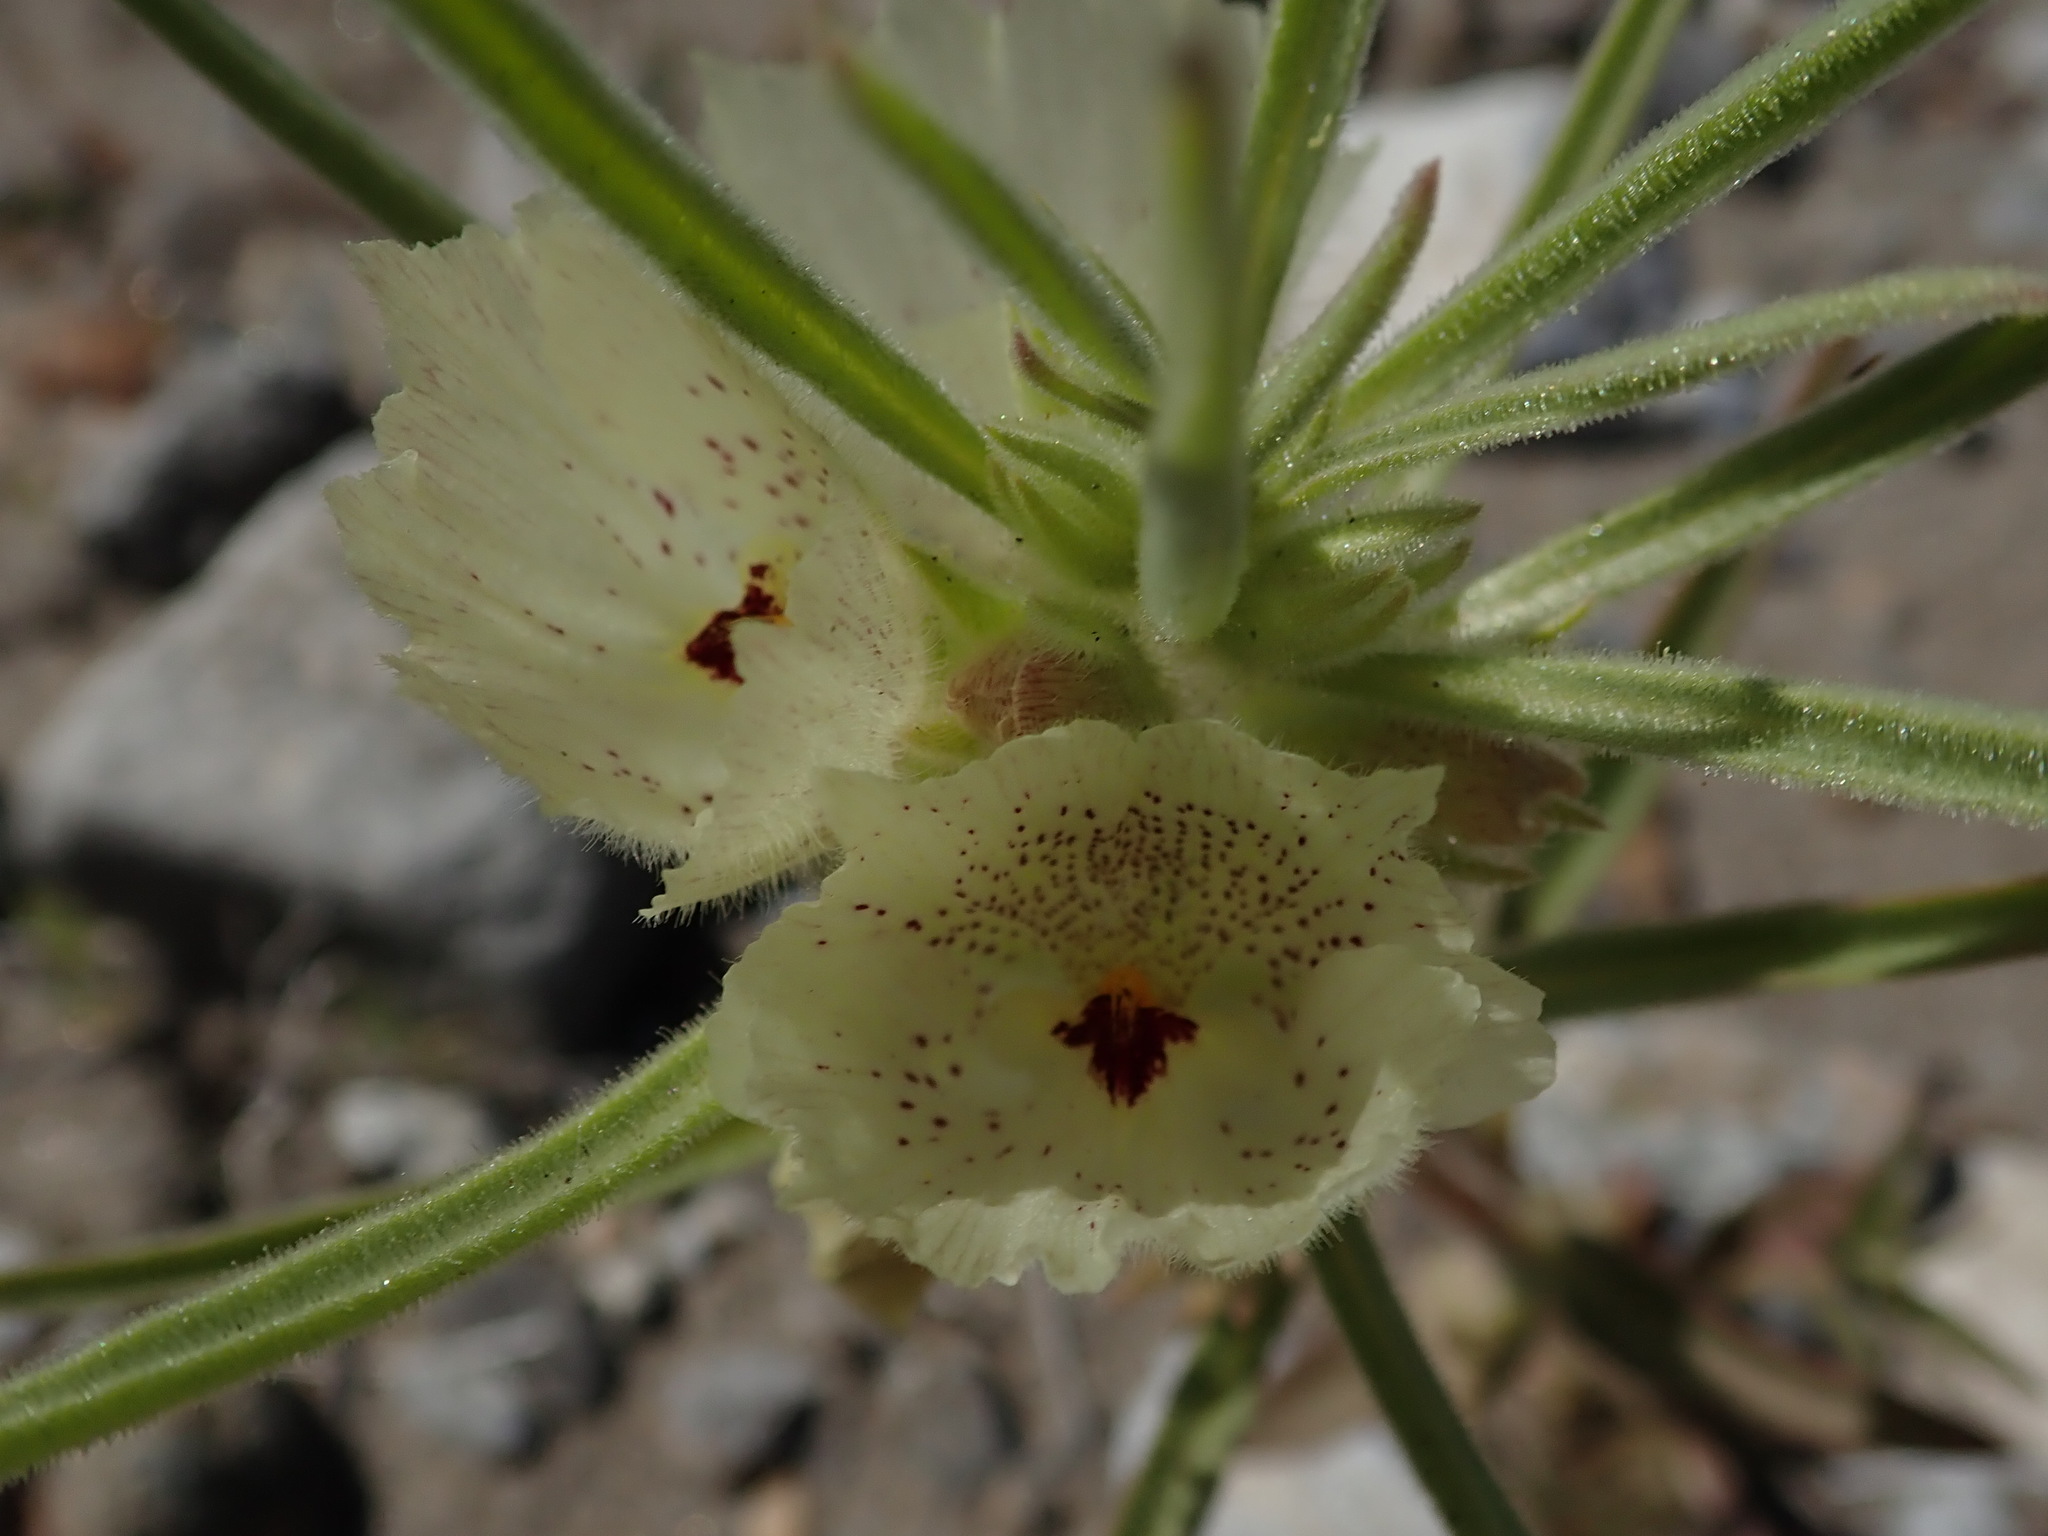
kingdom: Plantae
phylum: Tracheophyta
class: Magnoliopsida
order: Lamiales
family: Plantaginaceae
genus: Mohavea
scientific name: Mohavea confertiflora
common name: Ghost flower
